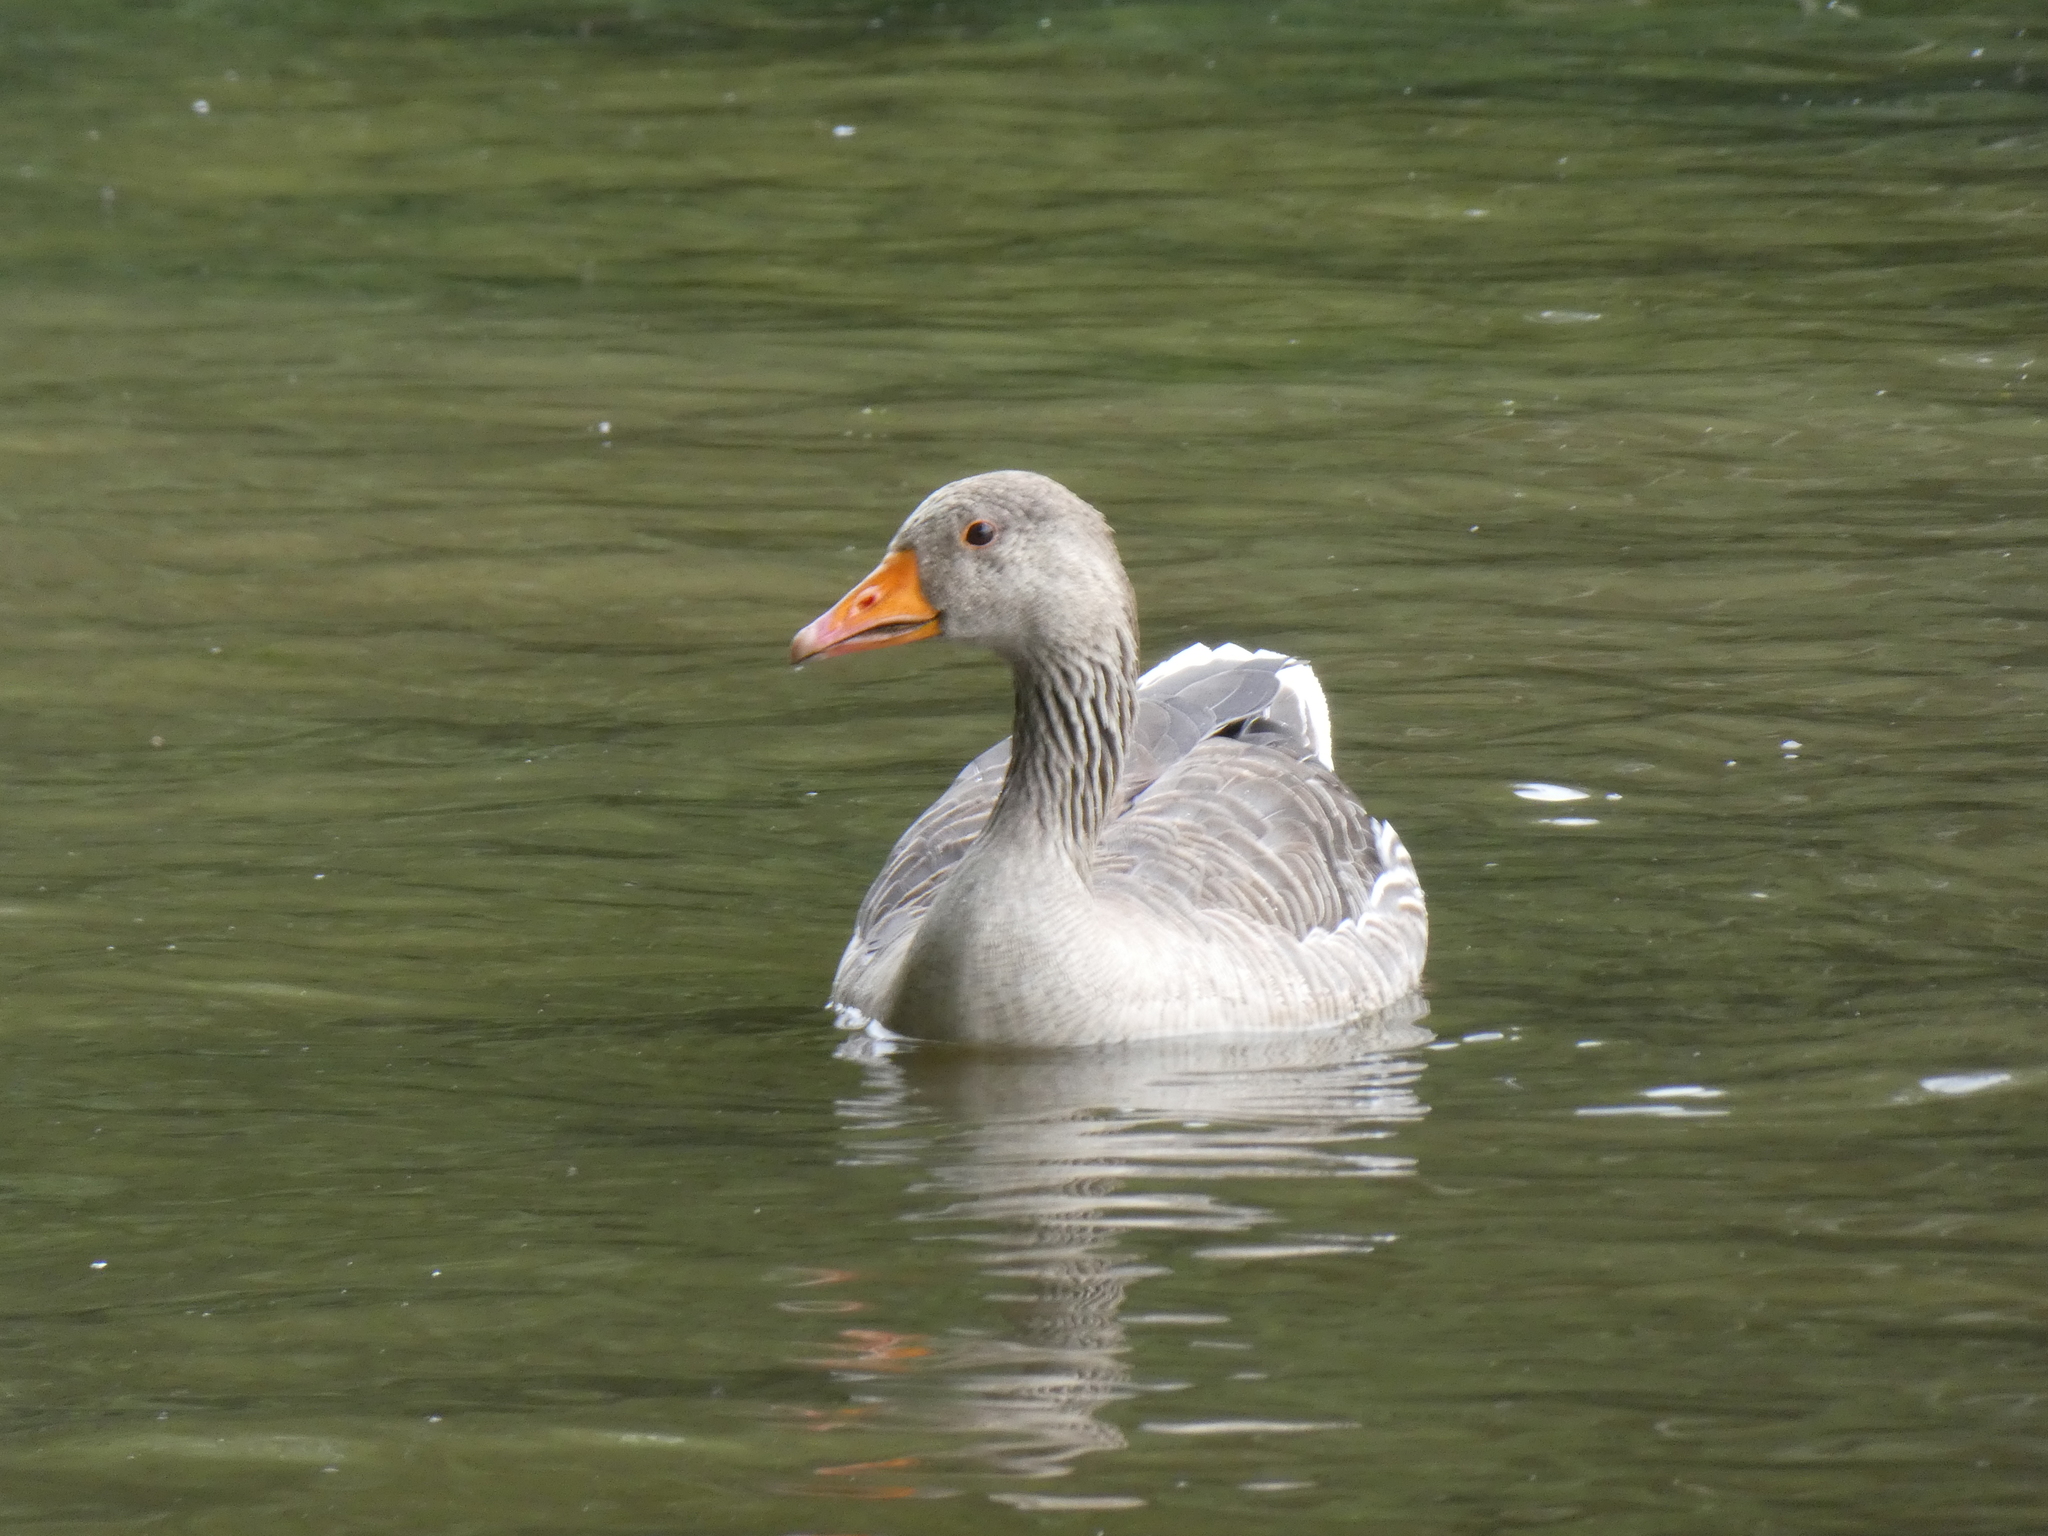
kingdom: Animalia
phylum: Chordata
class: Aves
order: Anseriformes
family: Anatidae
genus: Anser
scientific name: Anser anser
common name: Greylag goose
